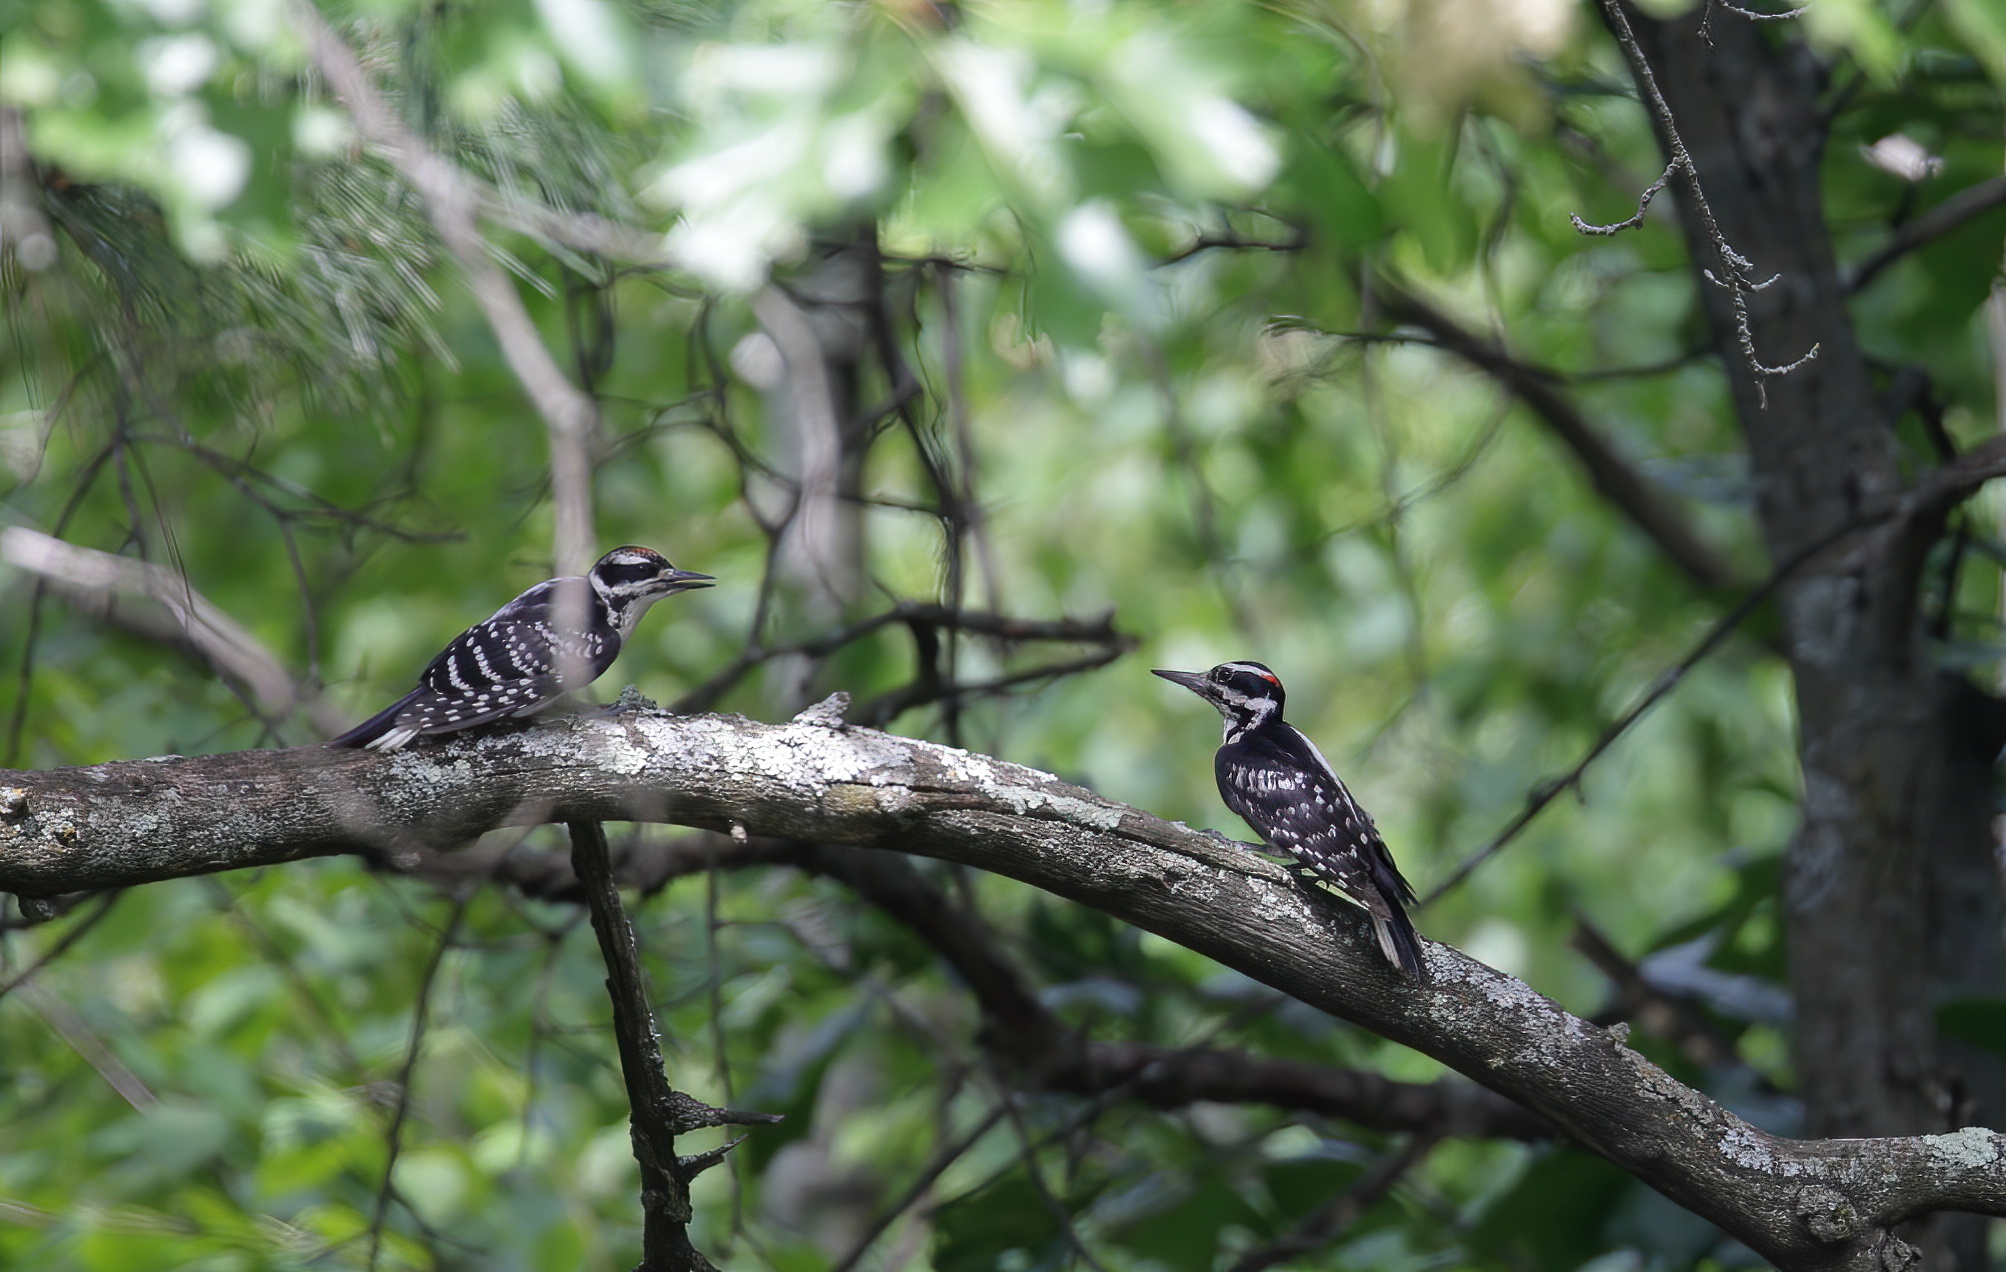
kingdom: Animalia
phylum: Chordata
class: Aves
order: Piciformes
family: Picidae
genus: Leuconotopicus
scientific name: Leuconotopicus villosus
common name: Hairy woodpecker
